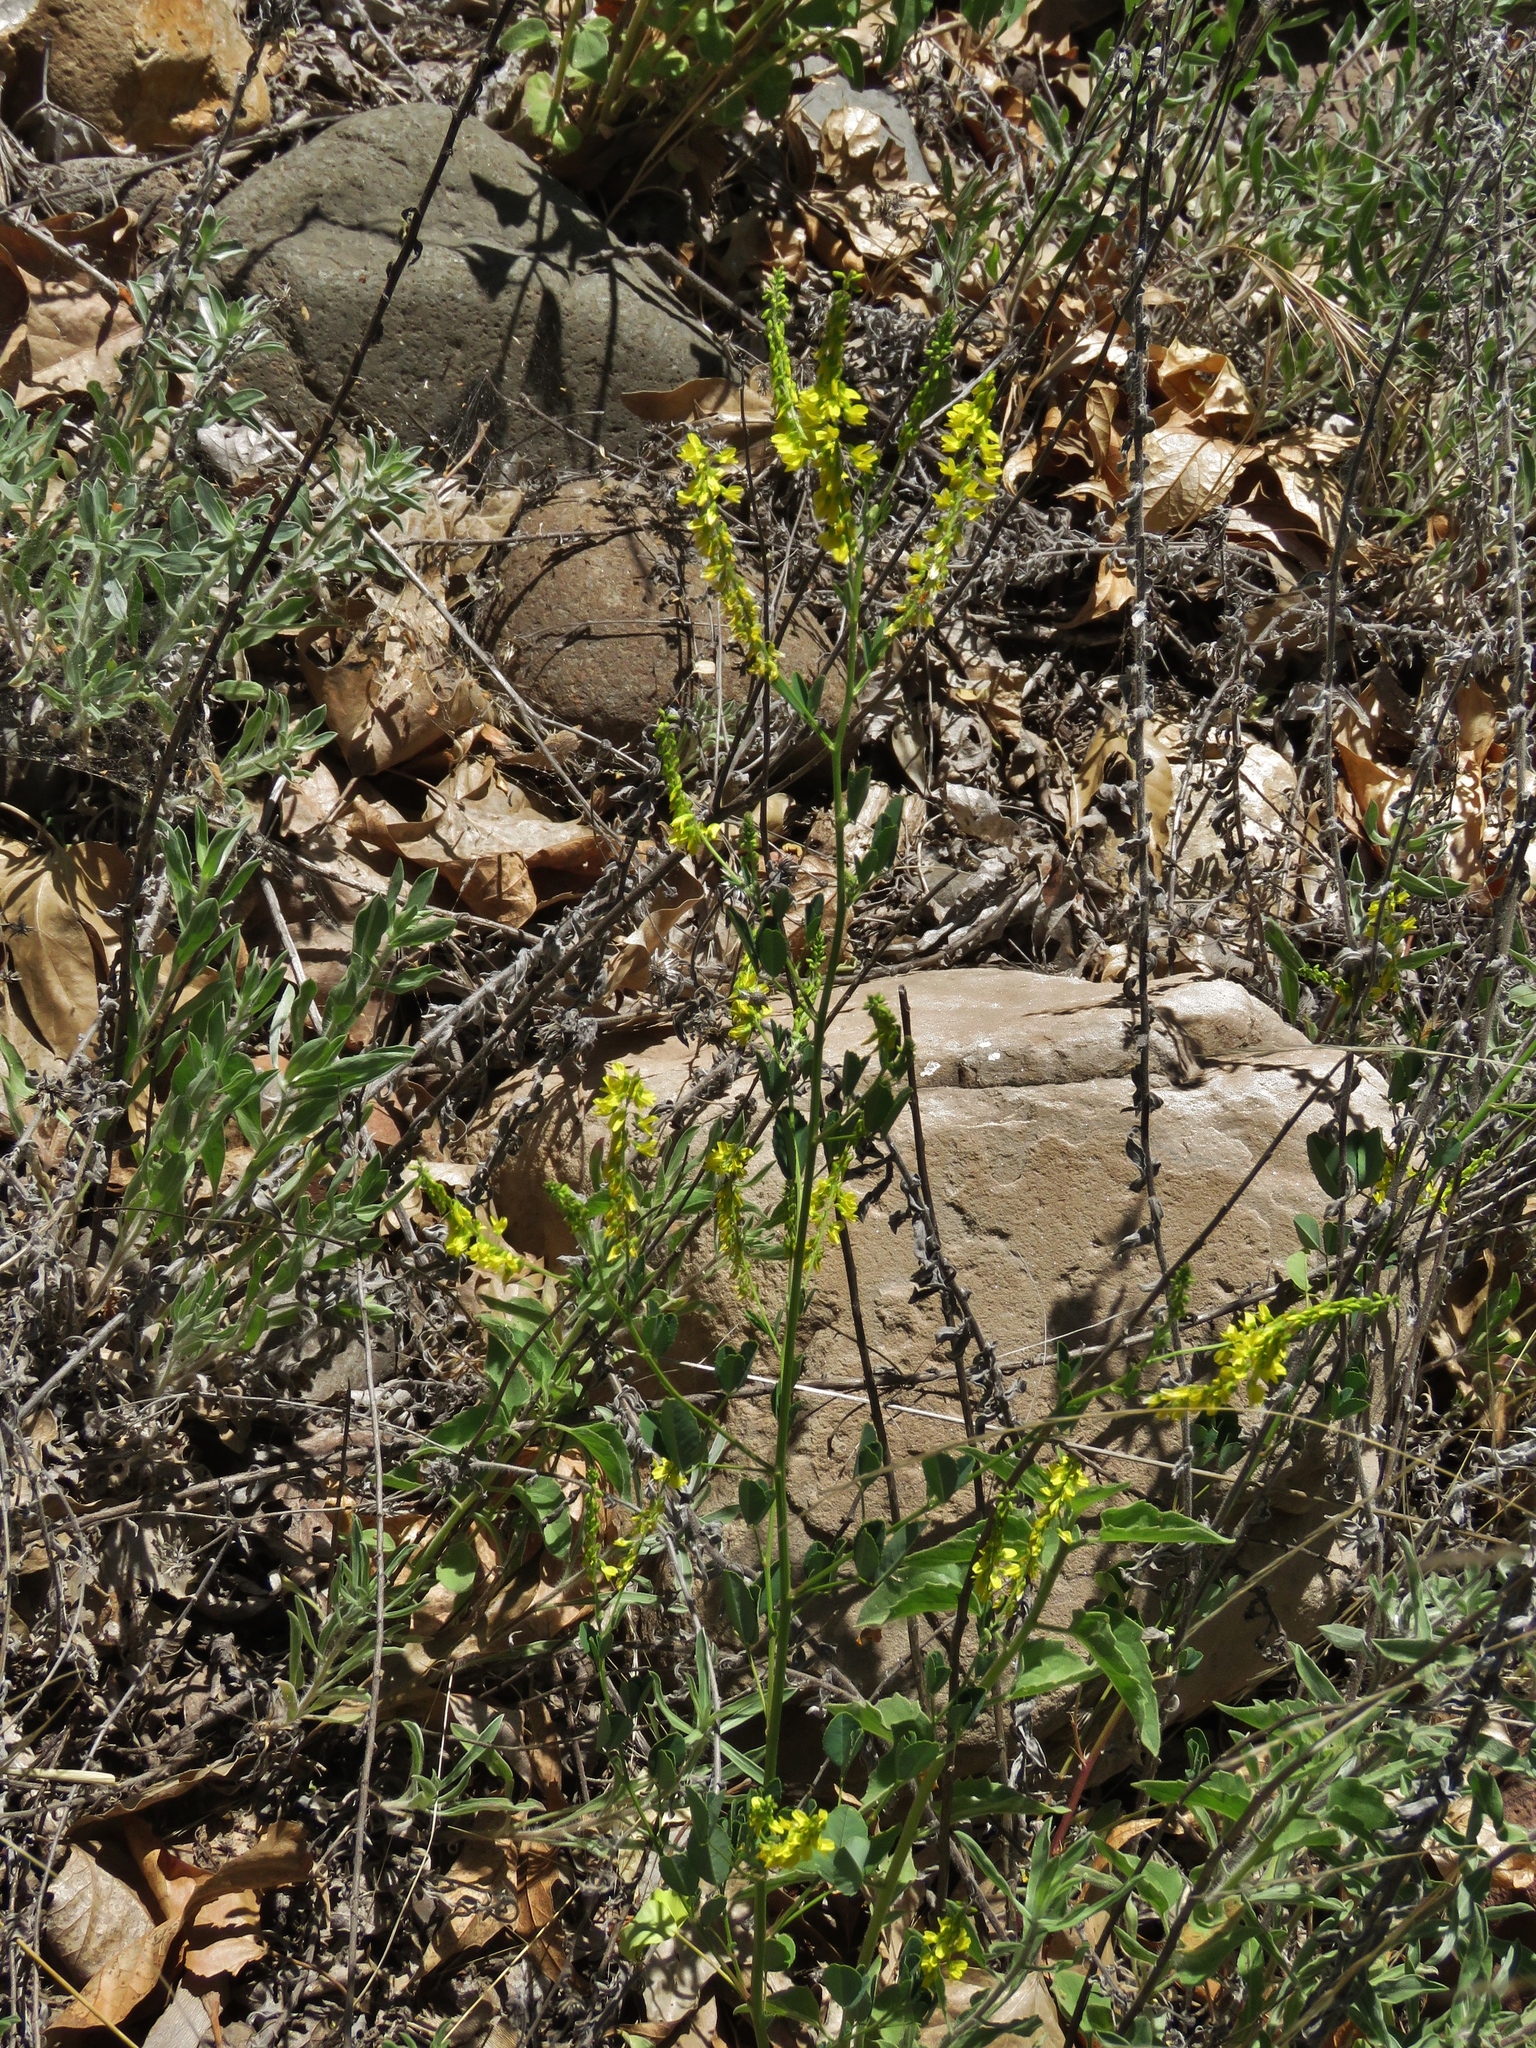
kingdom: Plantae
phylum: Tracheophyta
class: Magnoliopsida
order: Fabales
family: Fabaceae
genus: Melilotus
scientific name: Melilotus officinalis
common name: Sweetclover
